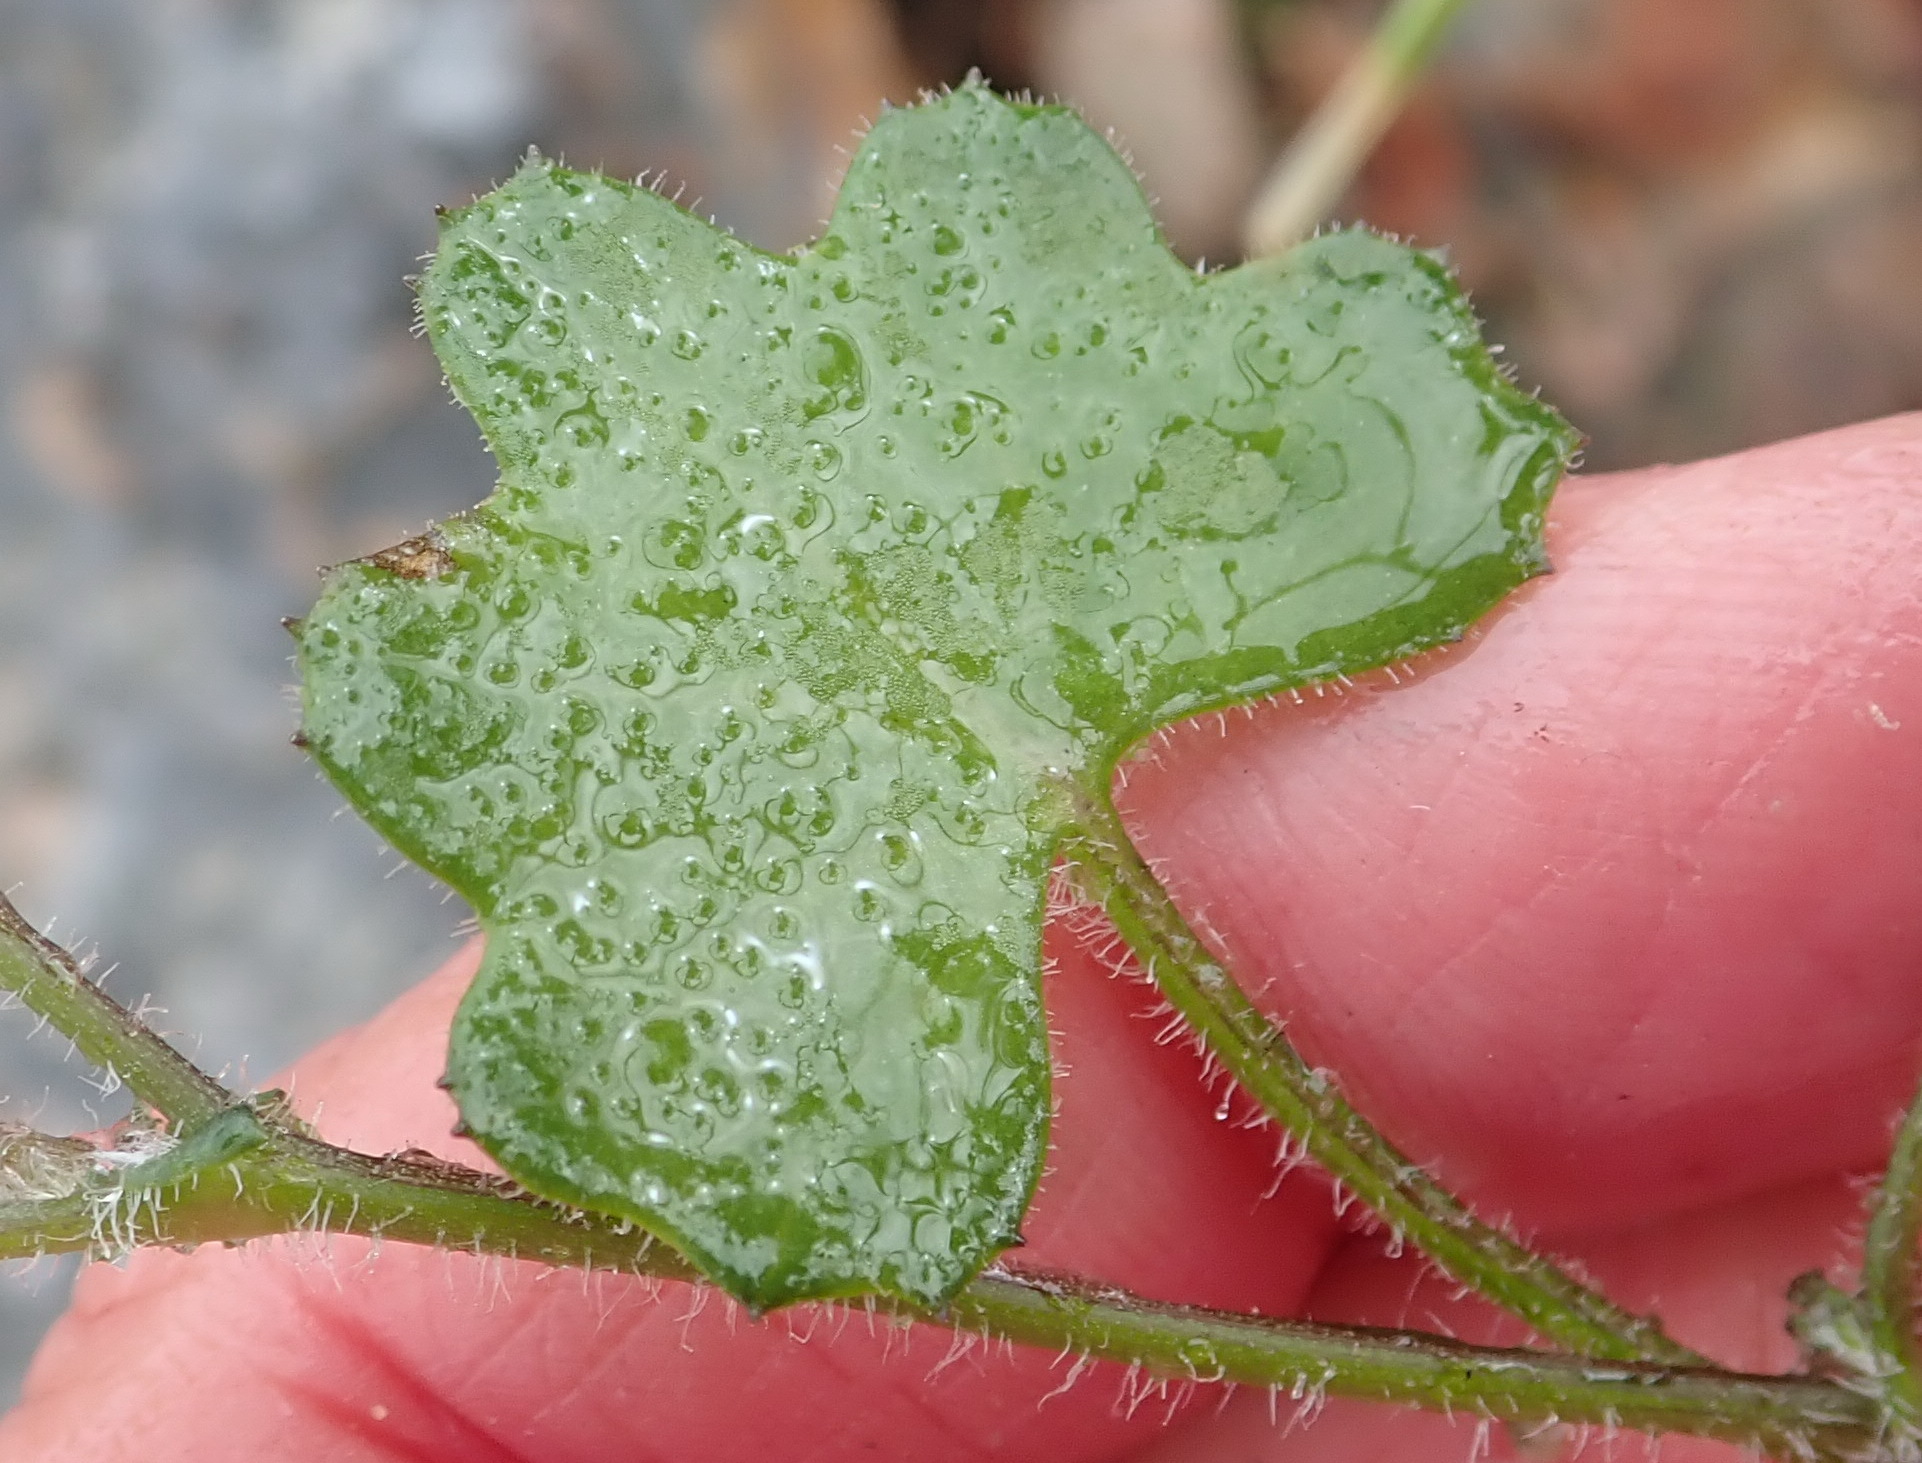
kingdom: Plantae
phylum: Tracheophyta
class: Magnoliopsida
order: Asterales
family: Asteraceae
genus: Cineraria
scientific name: Cineraria lobata
